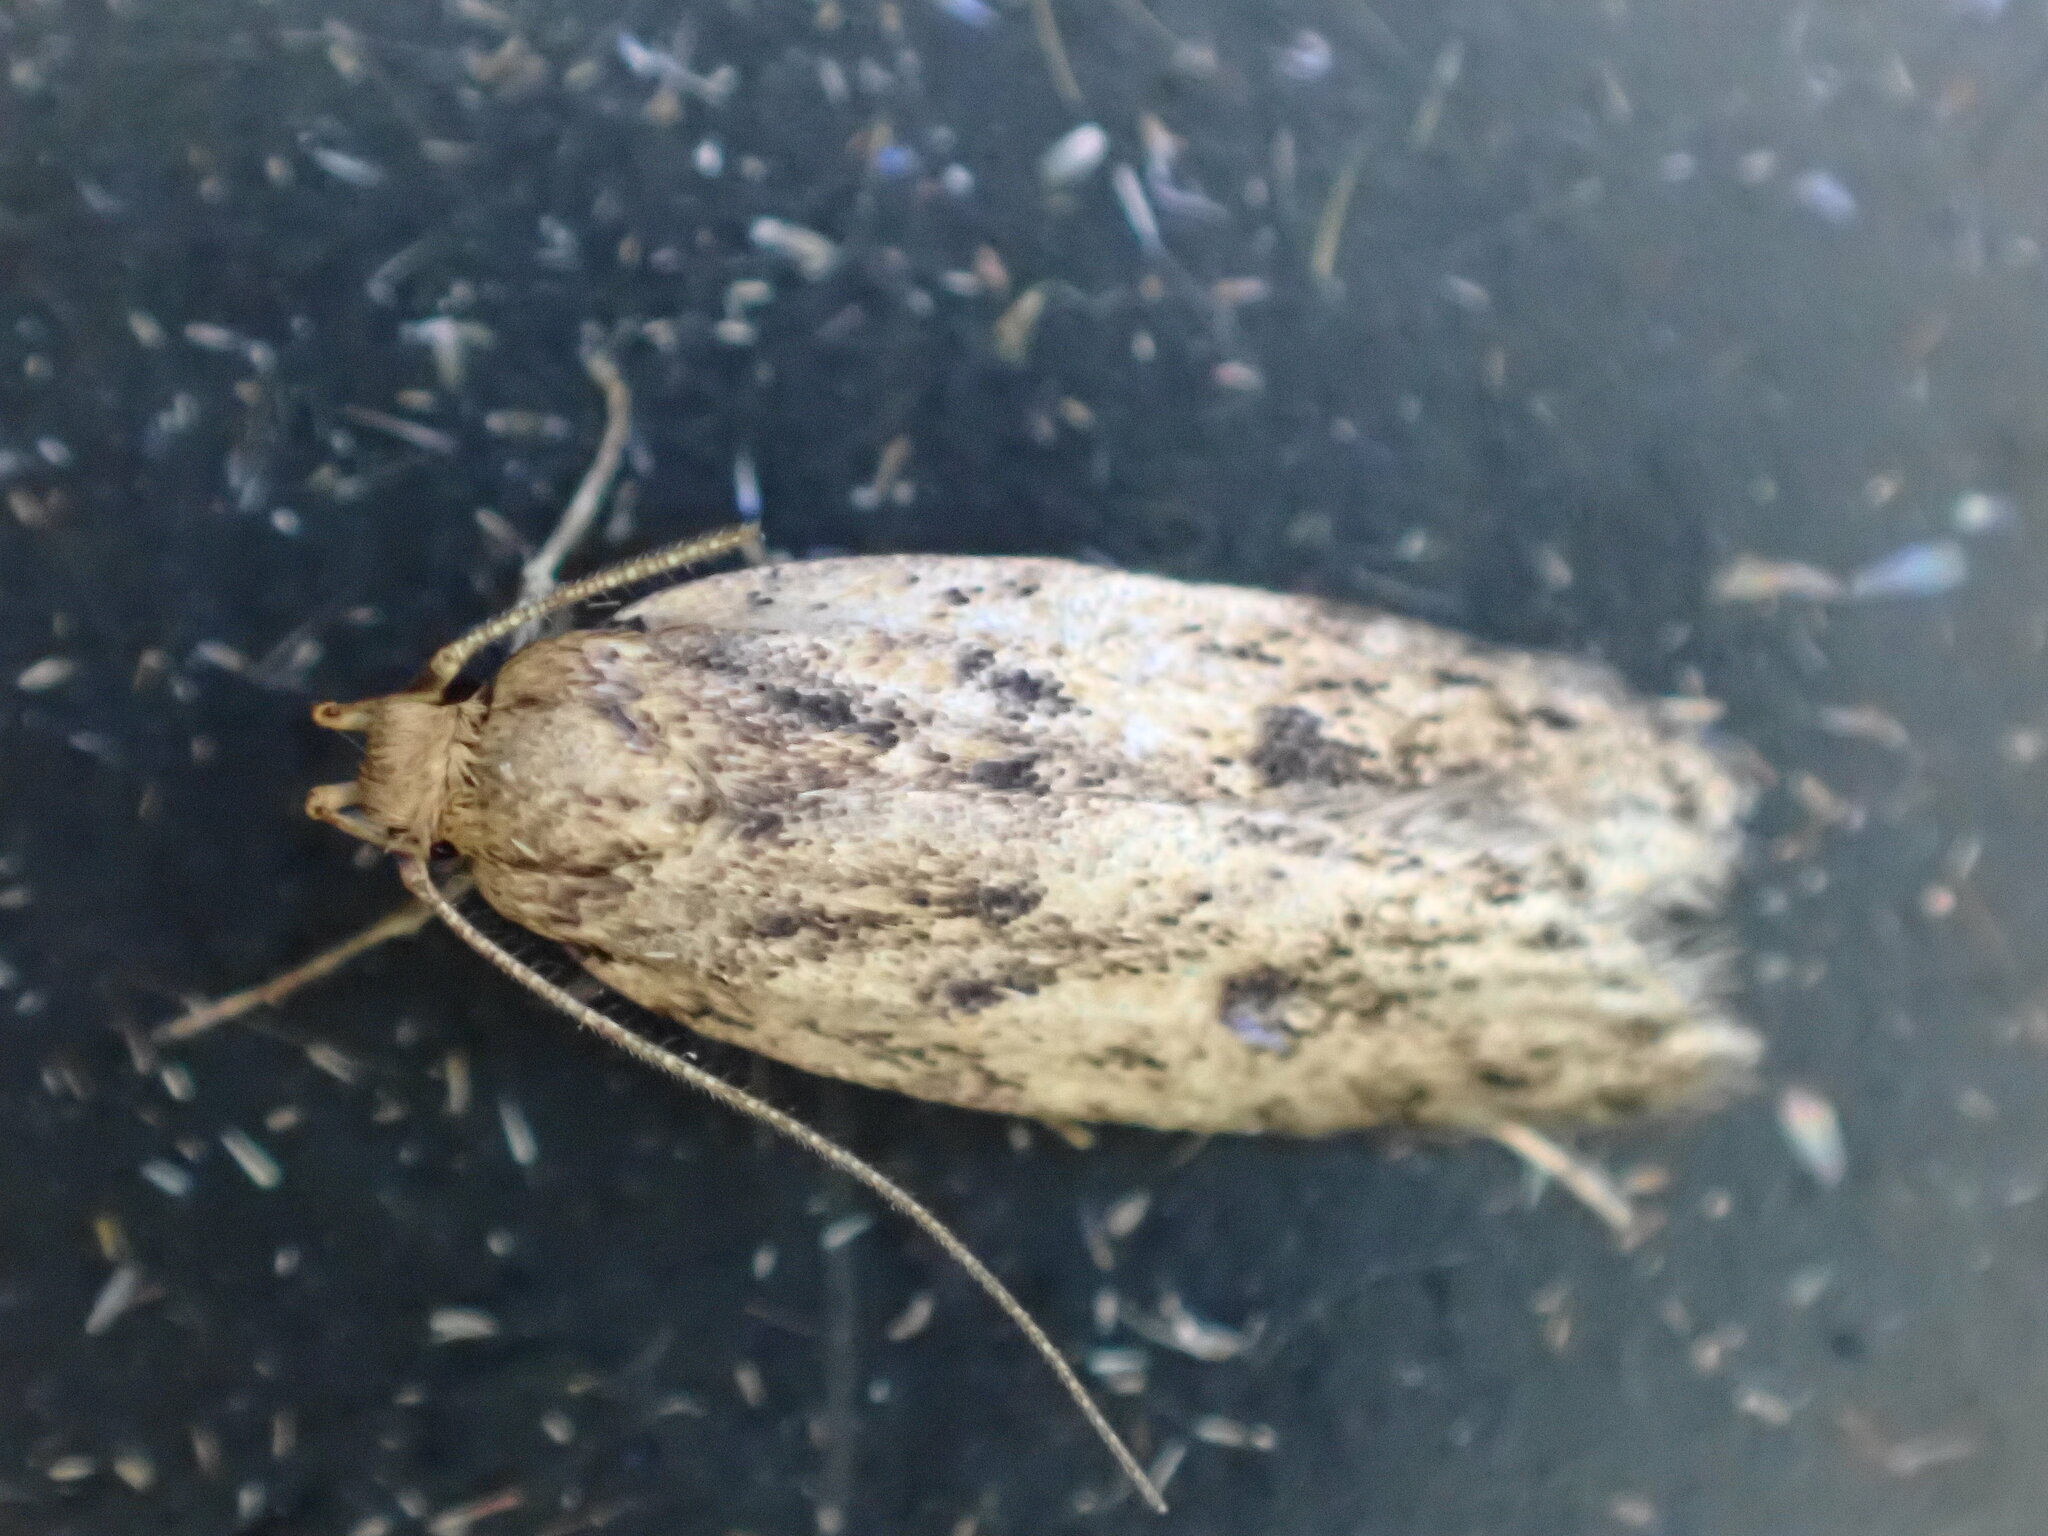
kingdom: Animalia
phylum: Arthropoda
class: Insecta
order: Lepidoptera
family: Oecophoridae
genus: Hofmannophila
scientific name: Hofmannophila pseudospretella
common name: Brown house moth
